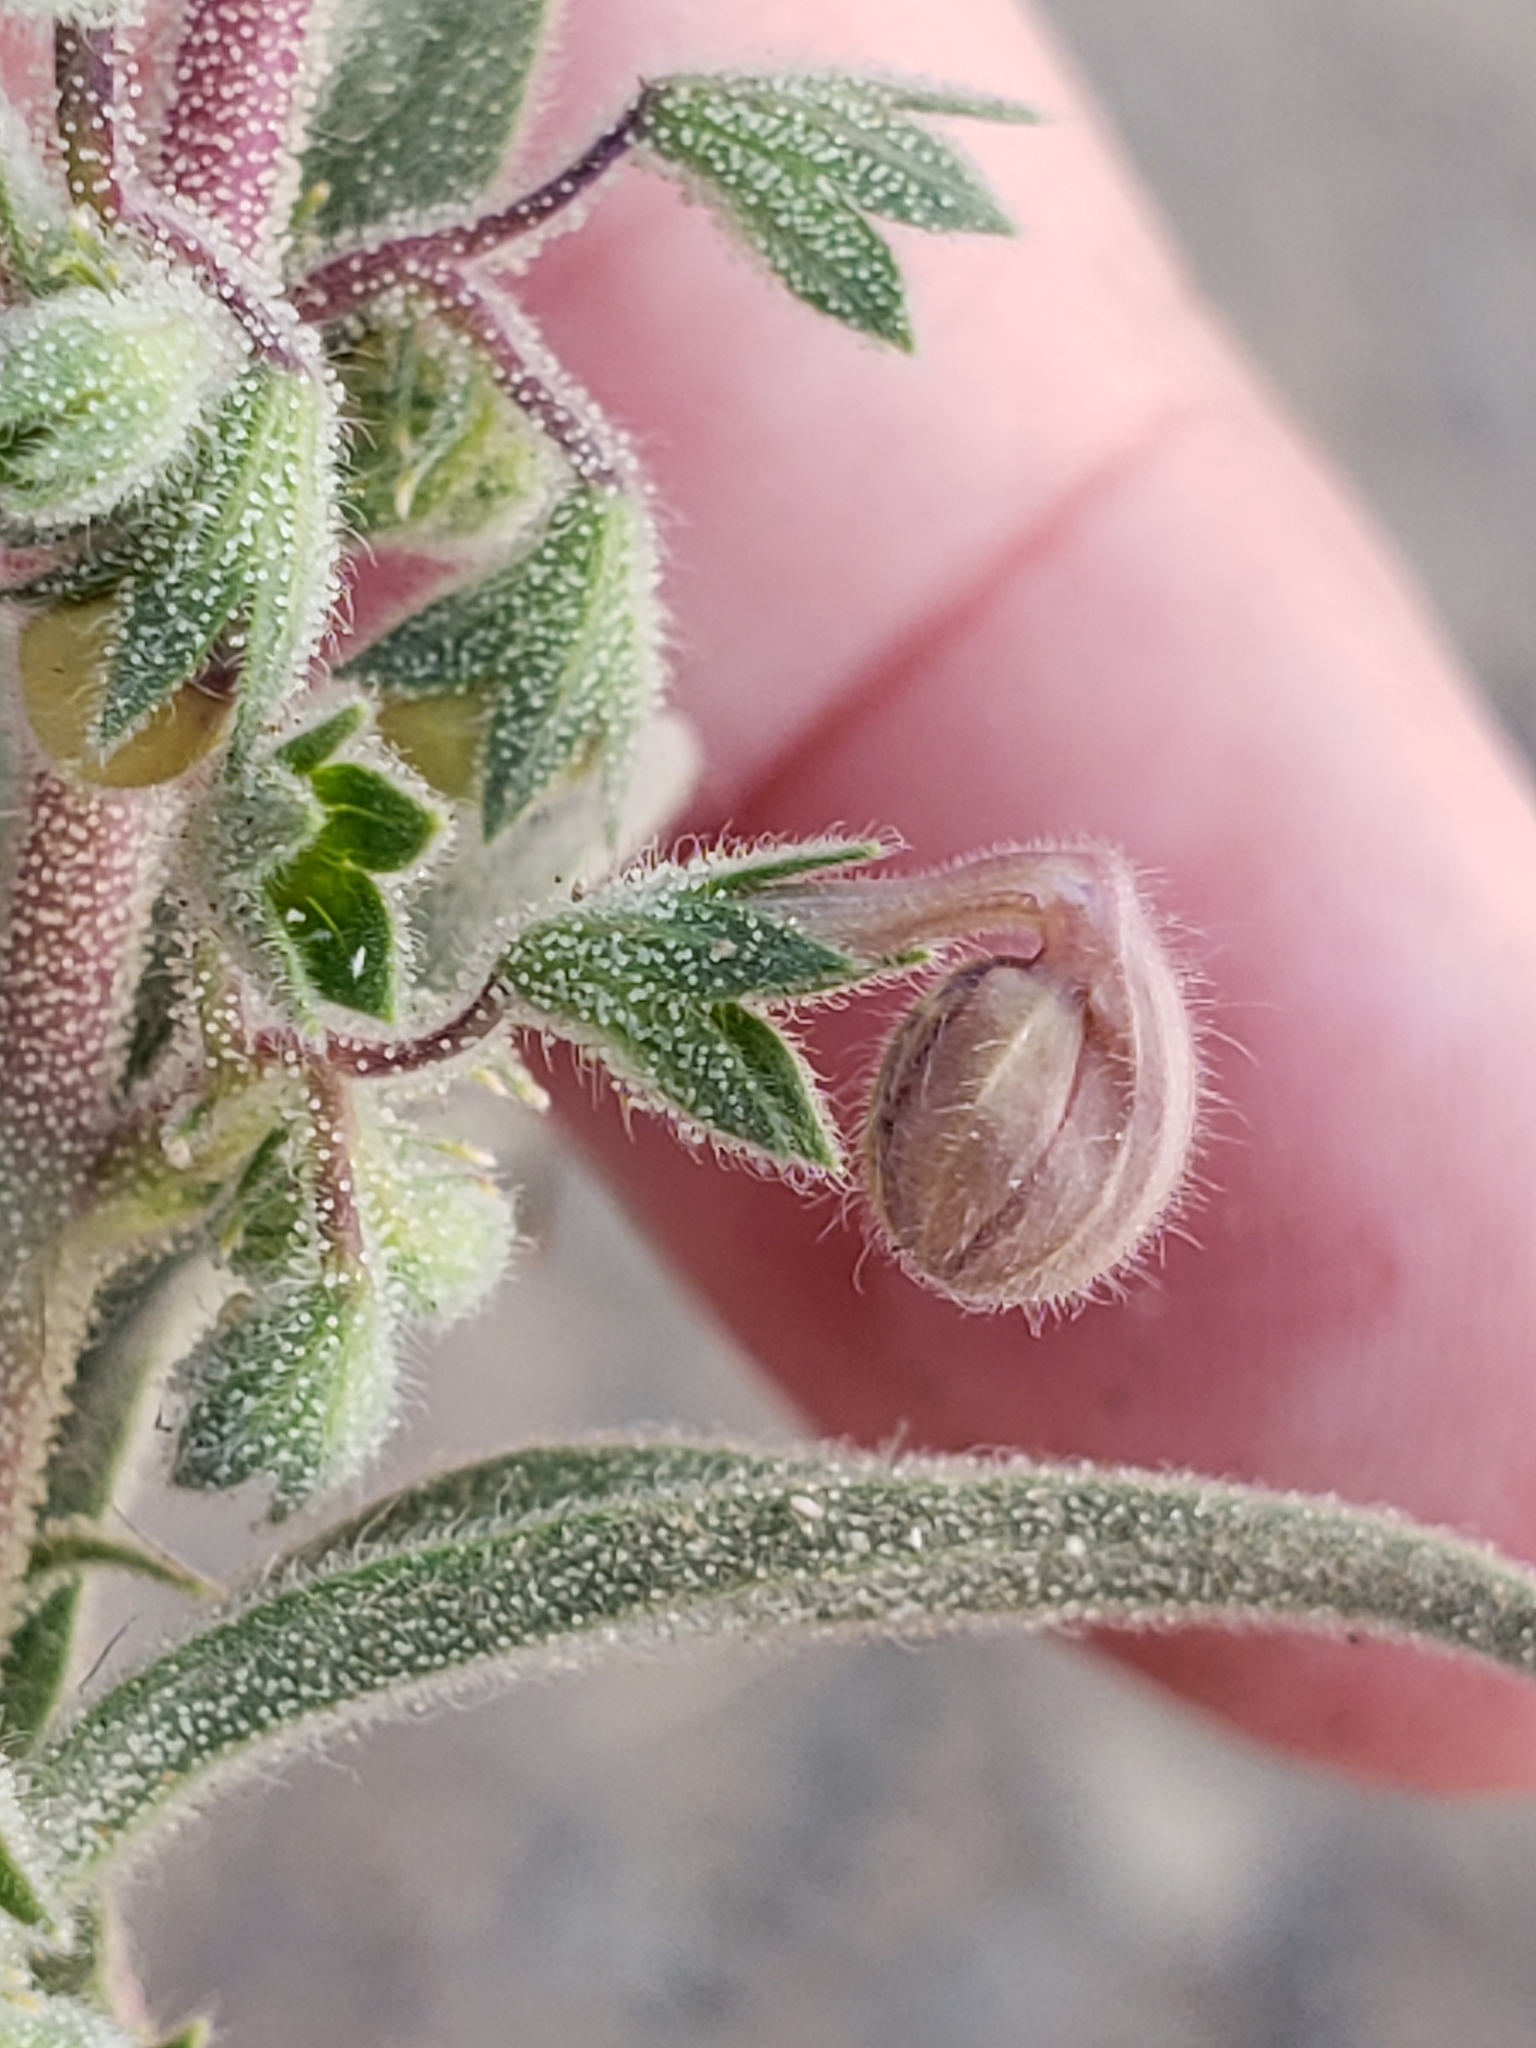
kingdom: Plantae
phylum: Tracheophyta
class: Magnoliopsida
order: Lamiales
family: Lamiaceae
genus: Trichostema
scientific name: Trichostema lanceolatum
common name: Vinegar-weed
